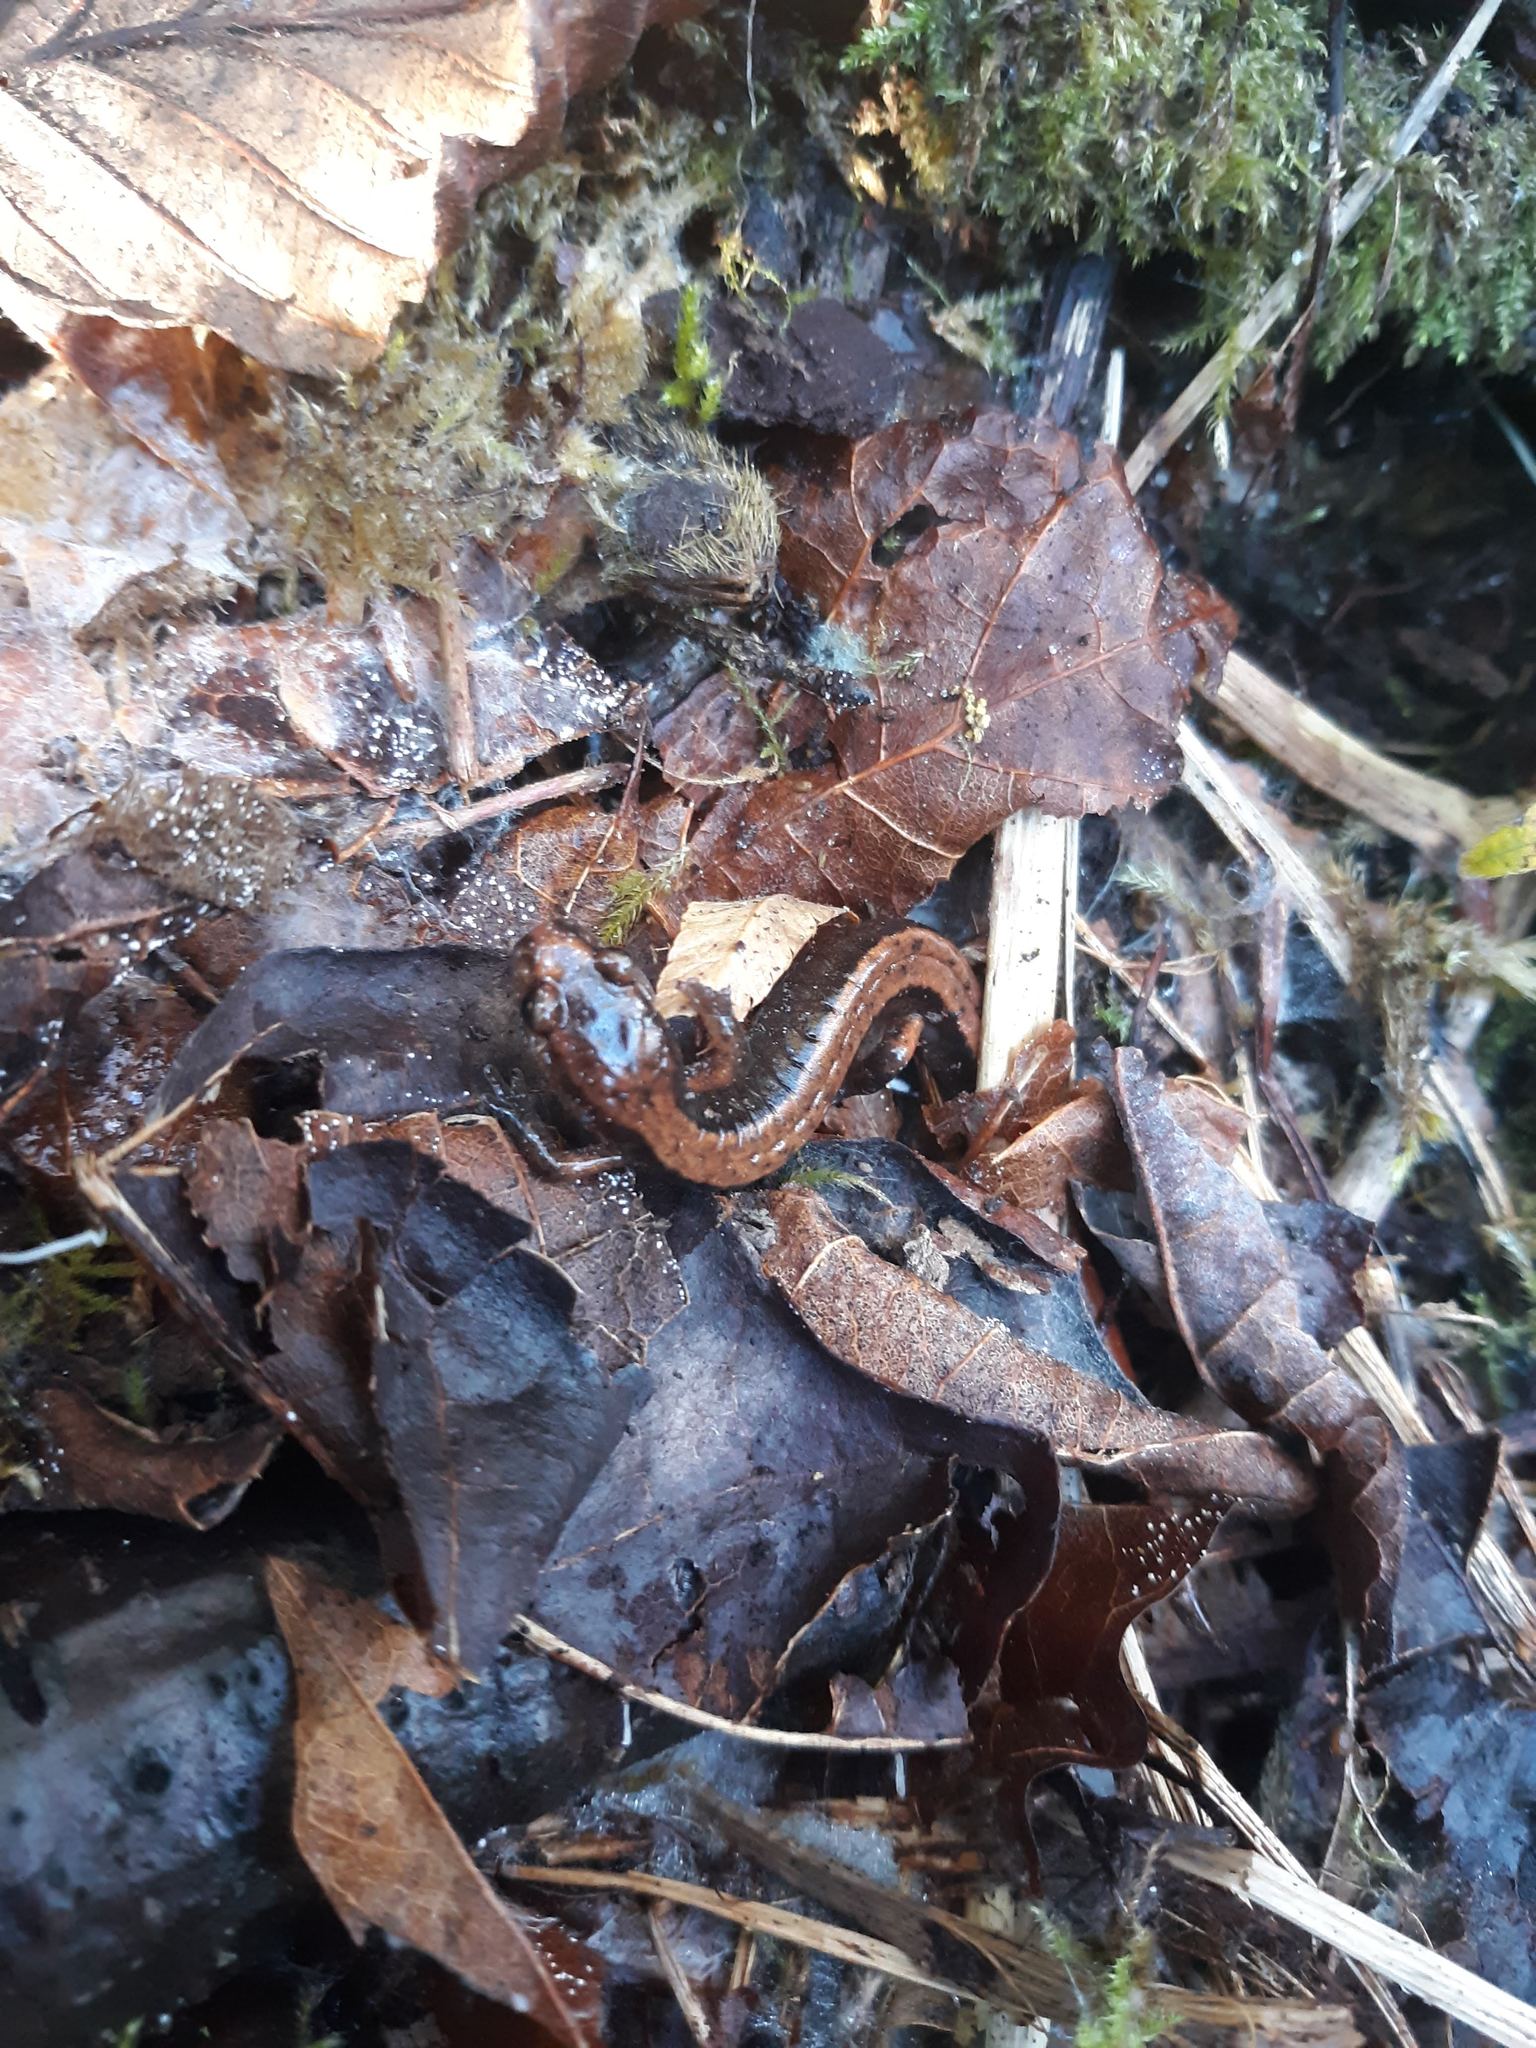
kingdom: Animalia
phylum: Chordata
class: Amphibia
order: Caudata
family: Plethodontidae
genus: Plethodon
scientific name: Plethodon vehiculum
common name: Western red-backed salamander
